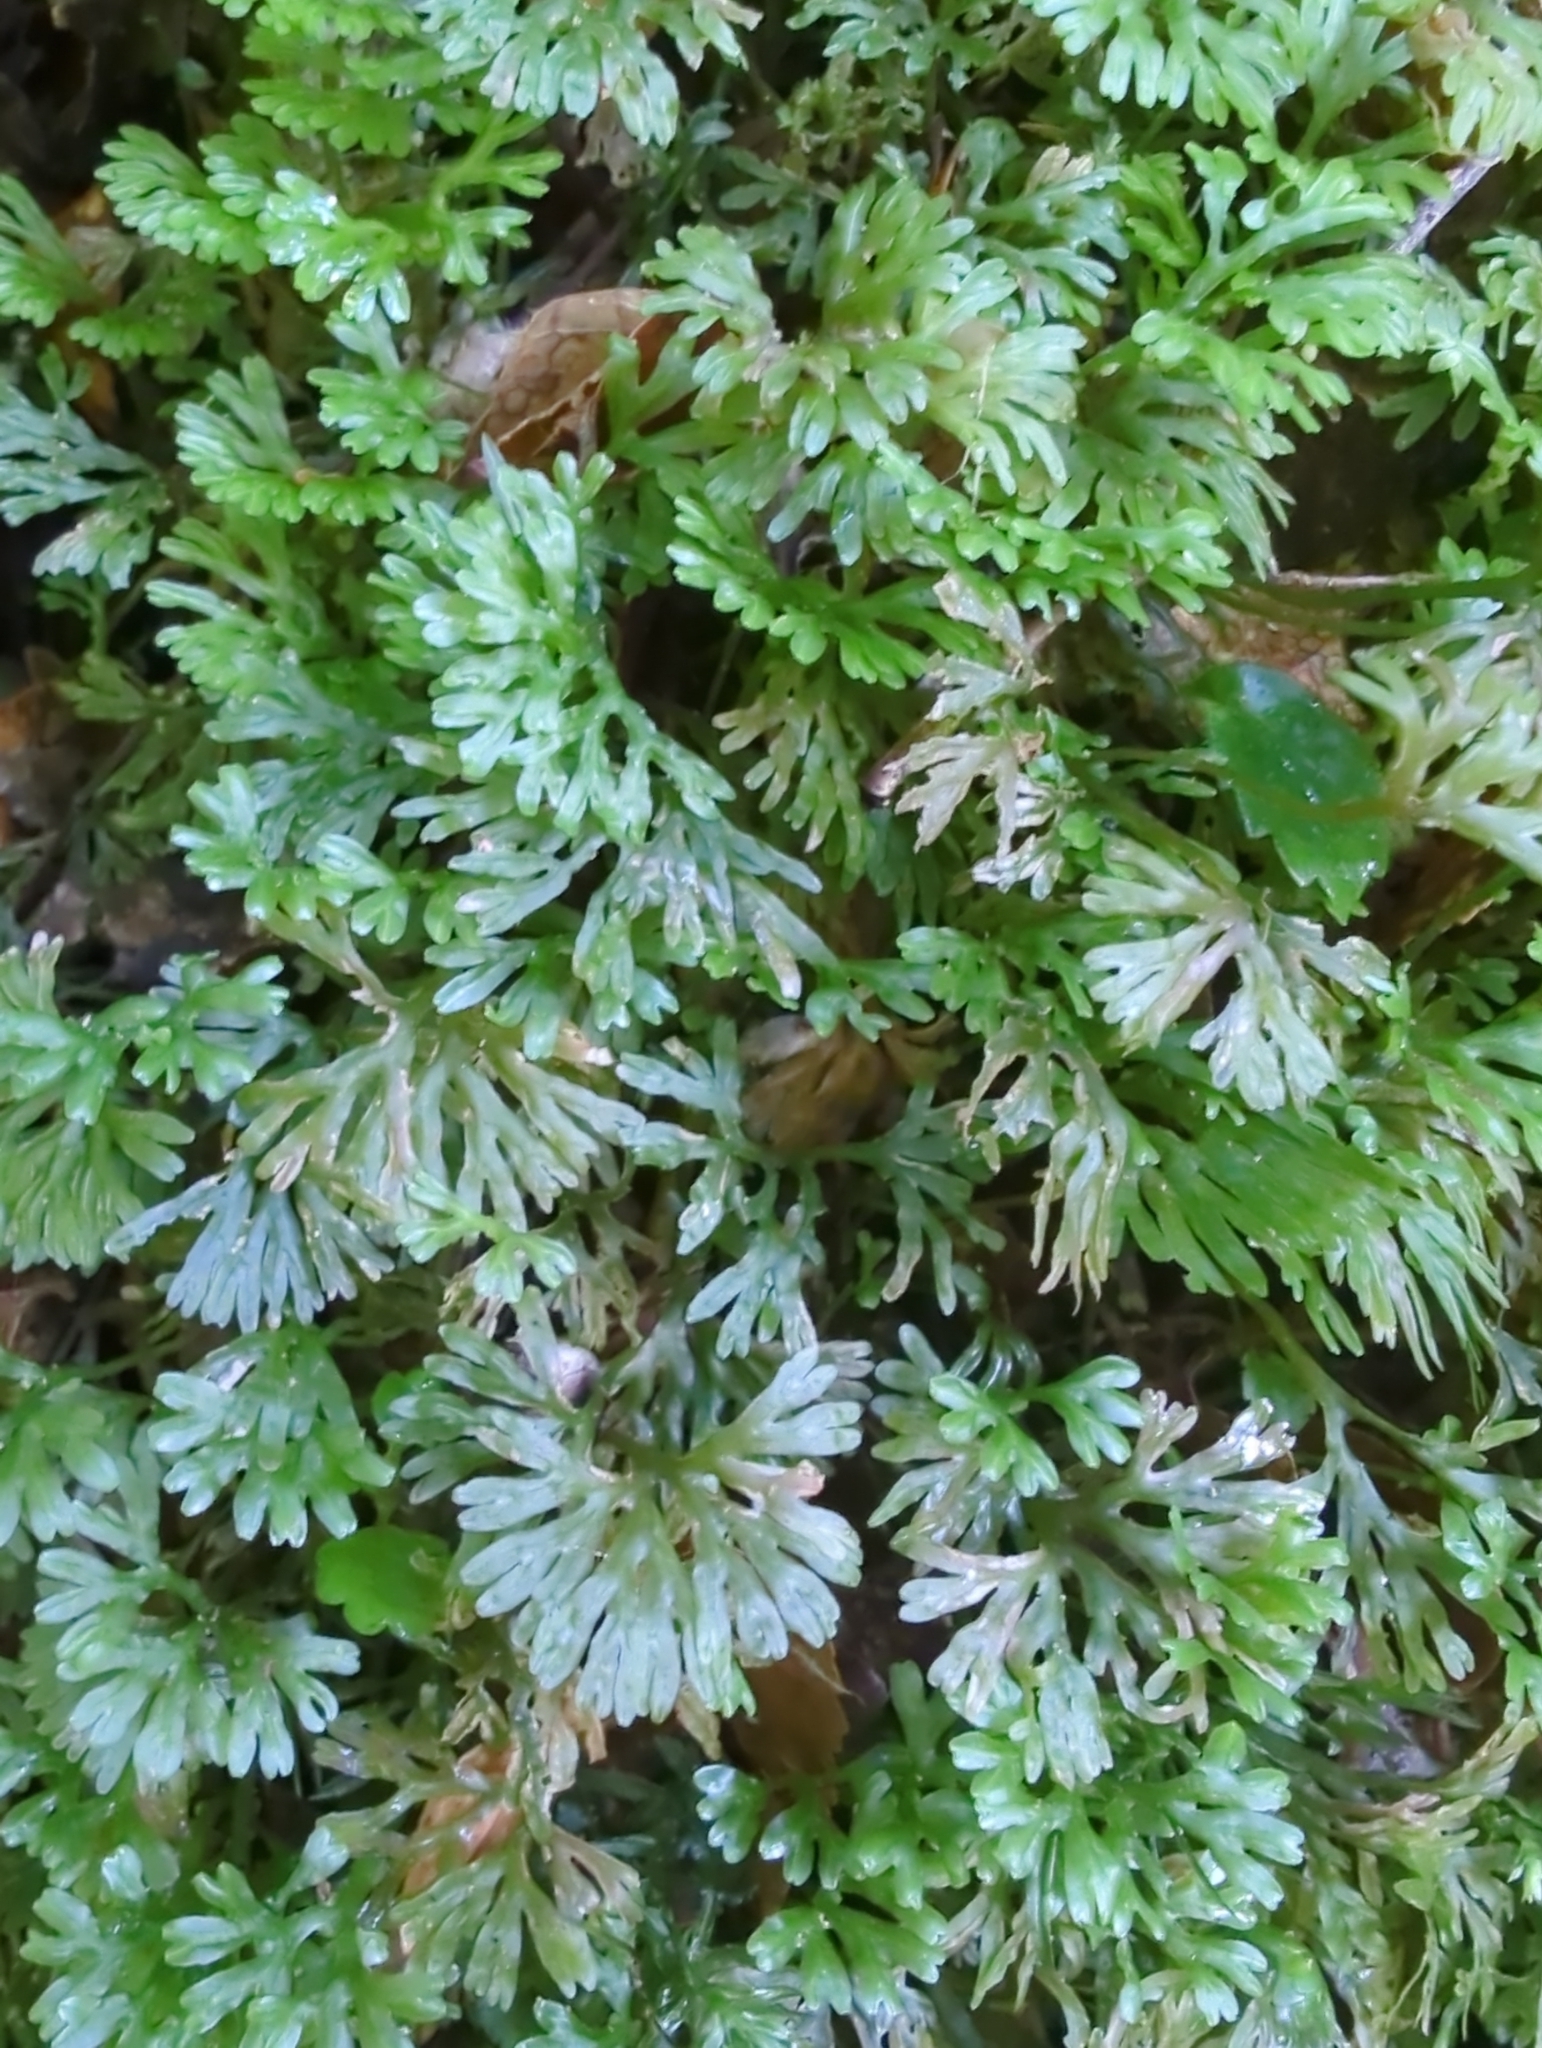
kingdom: Plantae
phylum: Marchantiophyta
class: Jungermanniopsida
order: Pallaviciniales
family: Hymenophytaceae
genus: Hymenophyton
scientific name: Hymenophyton flabellatum
